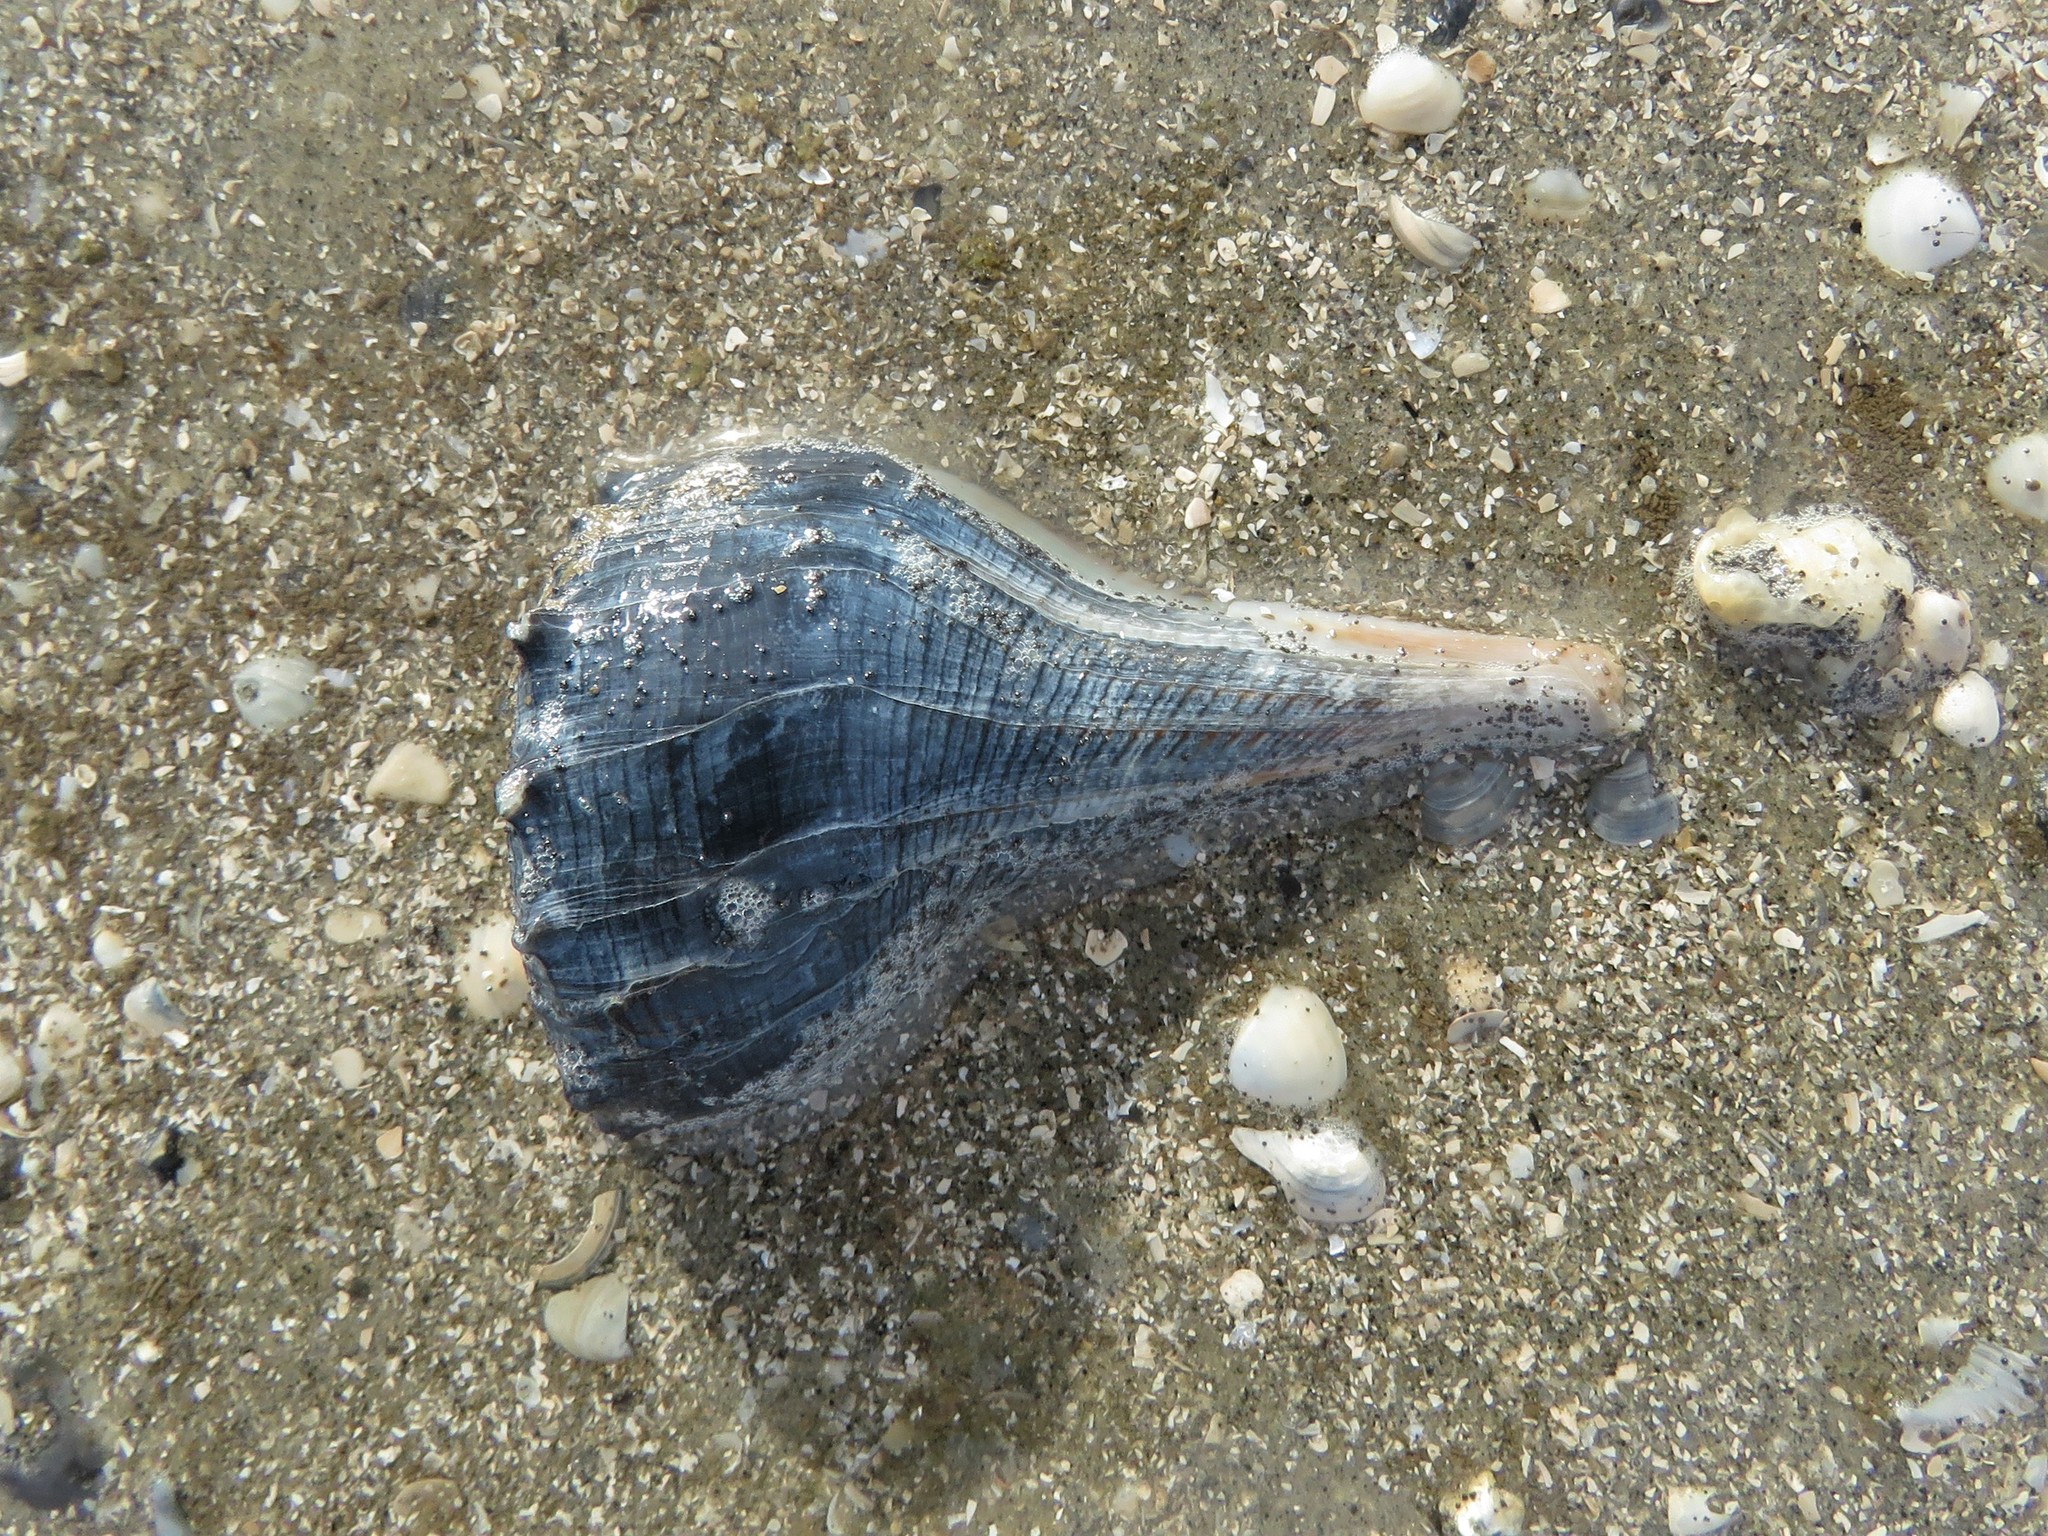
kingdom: Animalia
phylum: Mollusca
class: Gastropoda
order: Neogastropoda
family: Busyconidae
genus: Sinistrofulgur
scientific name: Sinistrofulgur pulleyi
